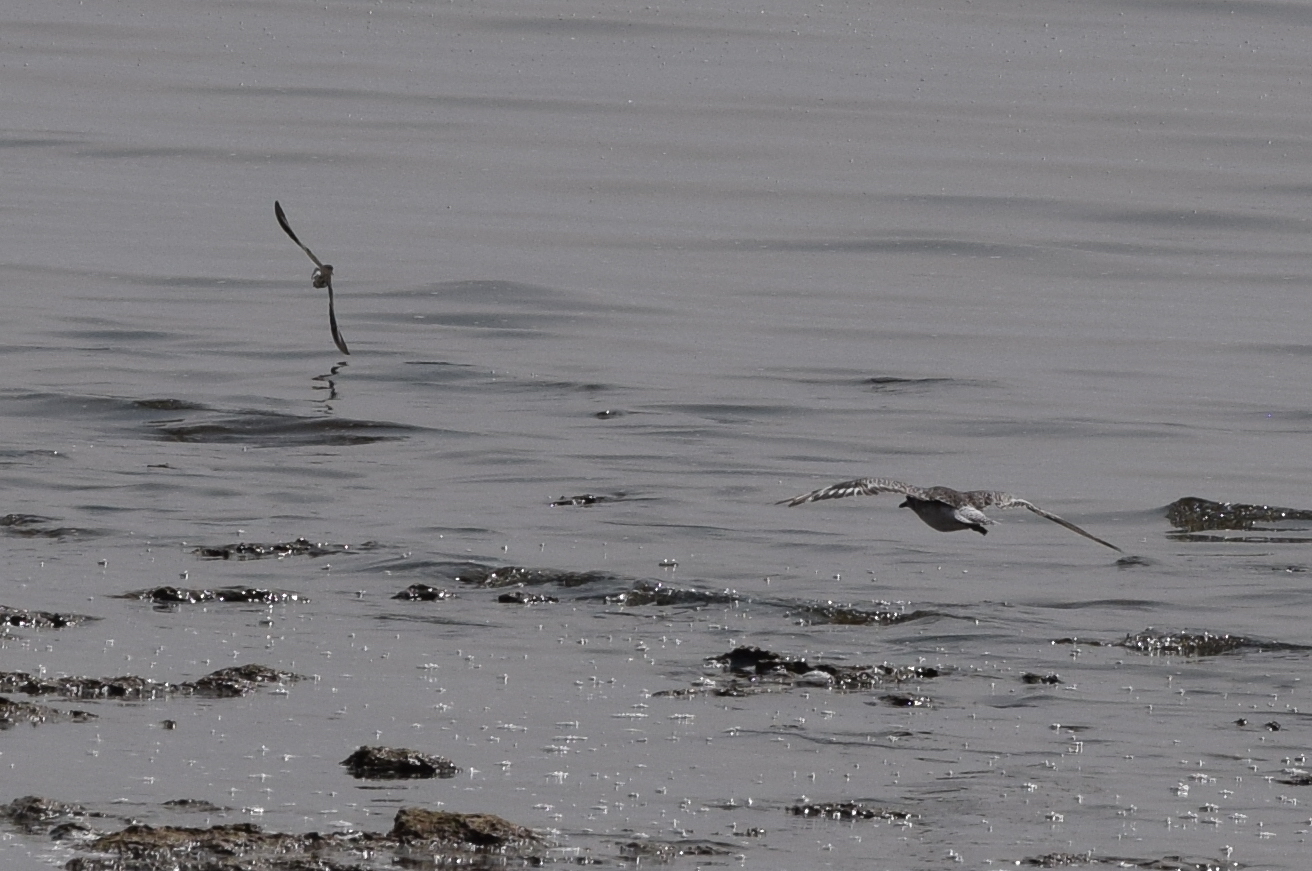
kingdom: Animalia
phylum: Chordata
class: Aves
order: Charadriiformes
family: Charadriidae
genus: Pluvialis
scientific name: Pluvialis squatarola
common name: Grey plover
